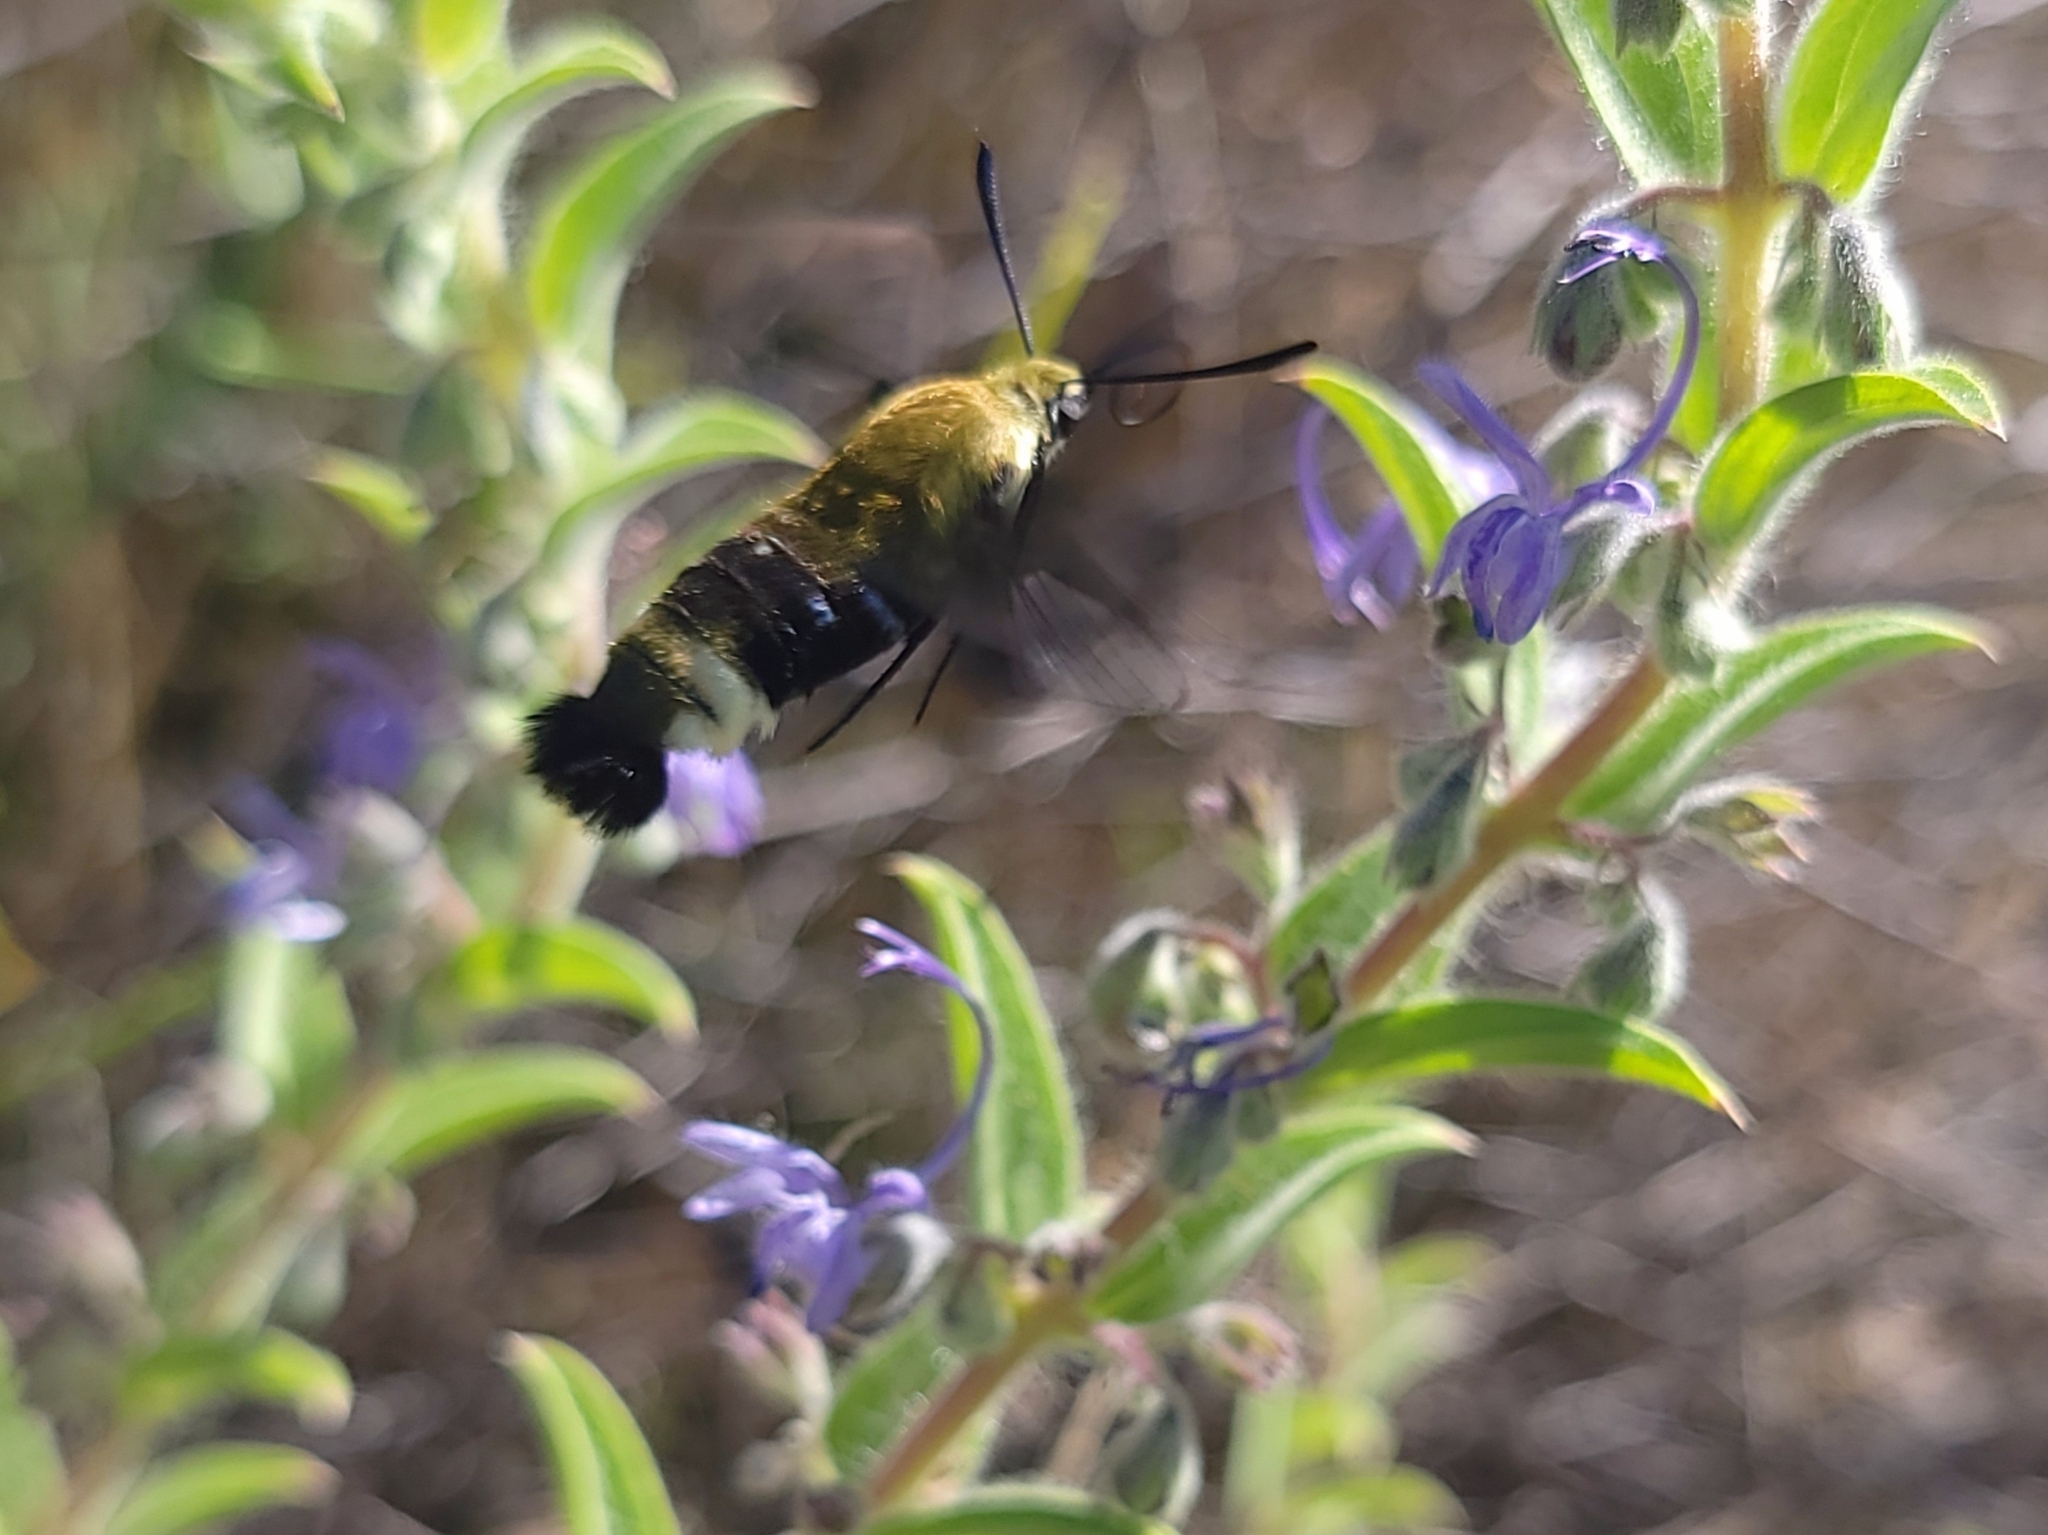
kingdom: Animalia
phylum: Arthropoda
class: Insecta
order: Lepidoptera
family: Sphingidae
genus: Hemaris
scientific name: Hemaris thetis
